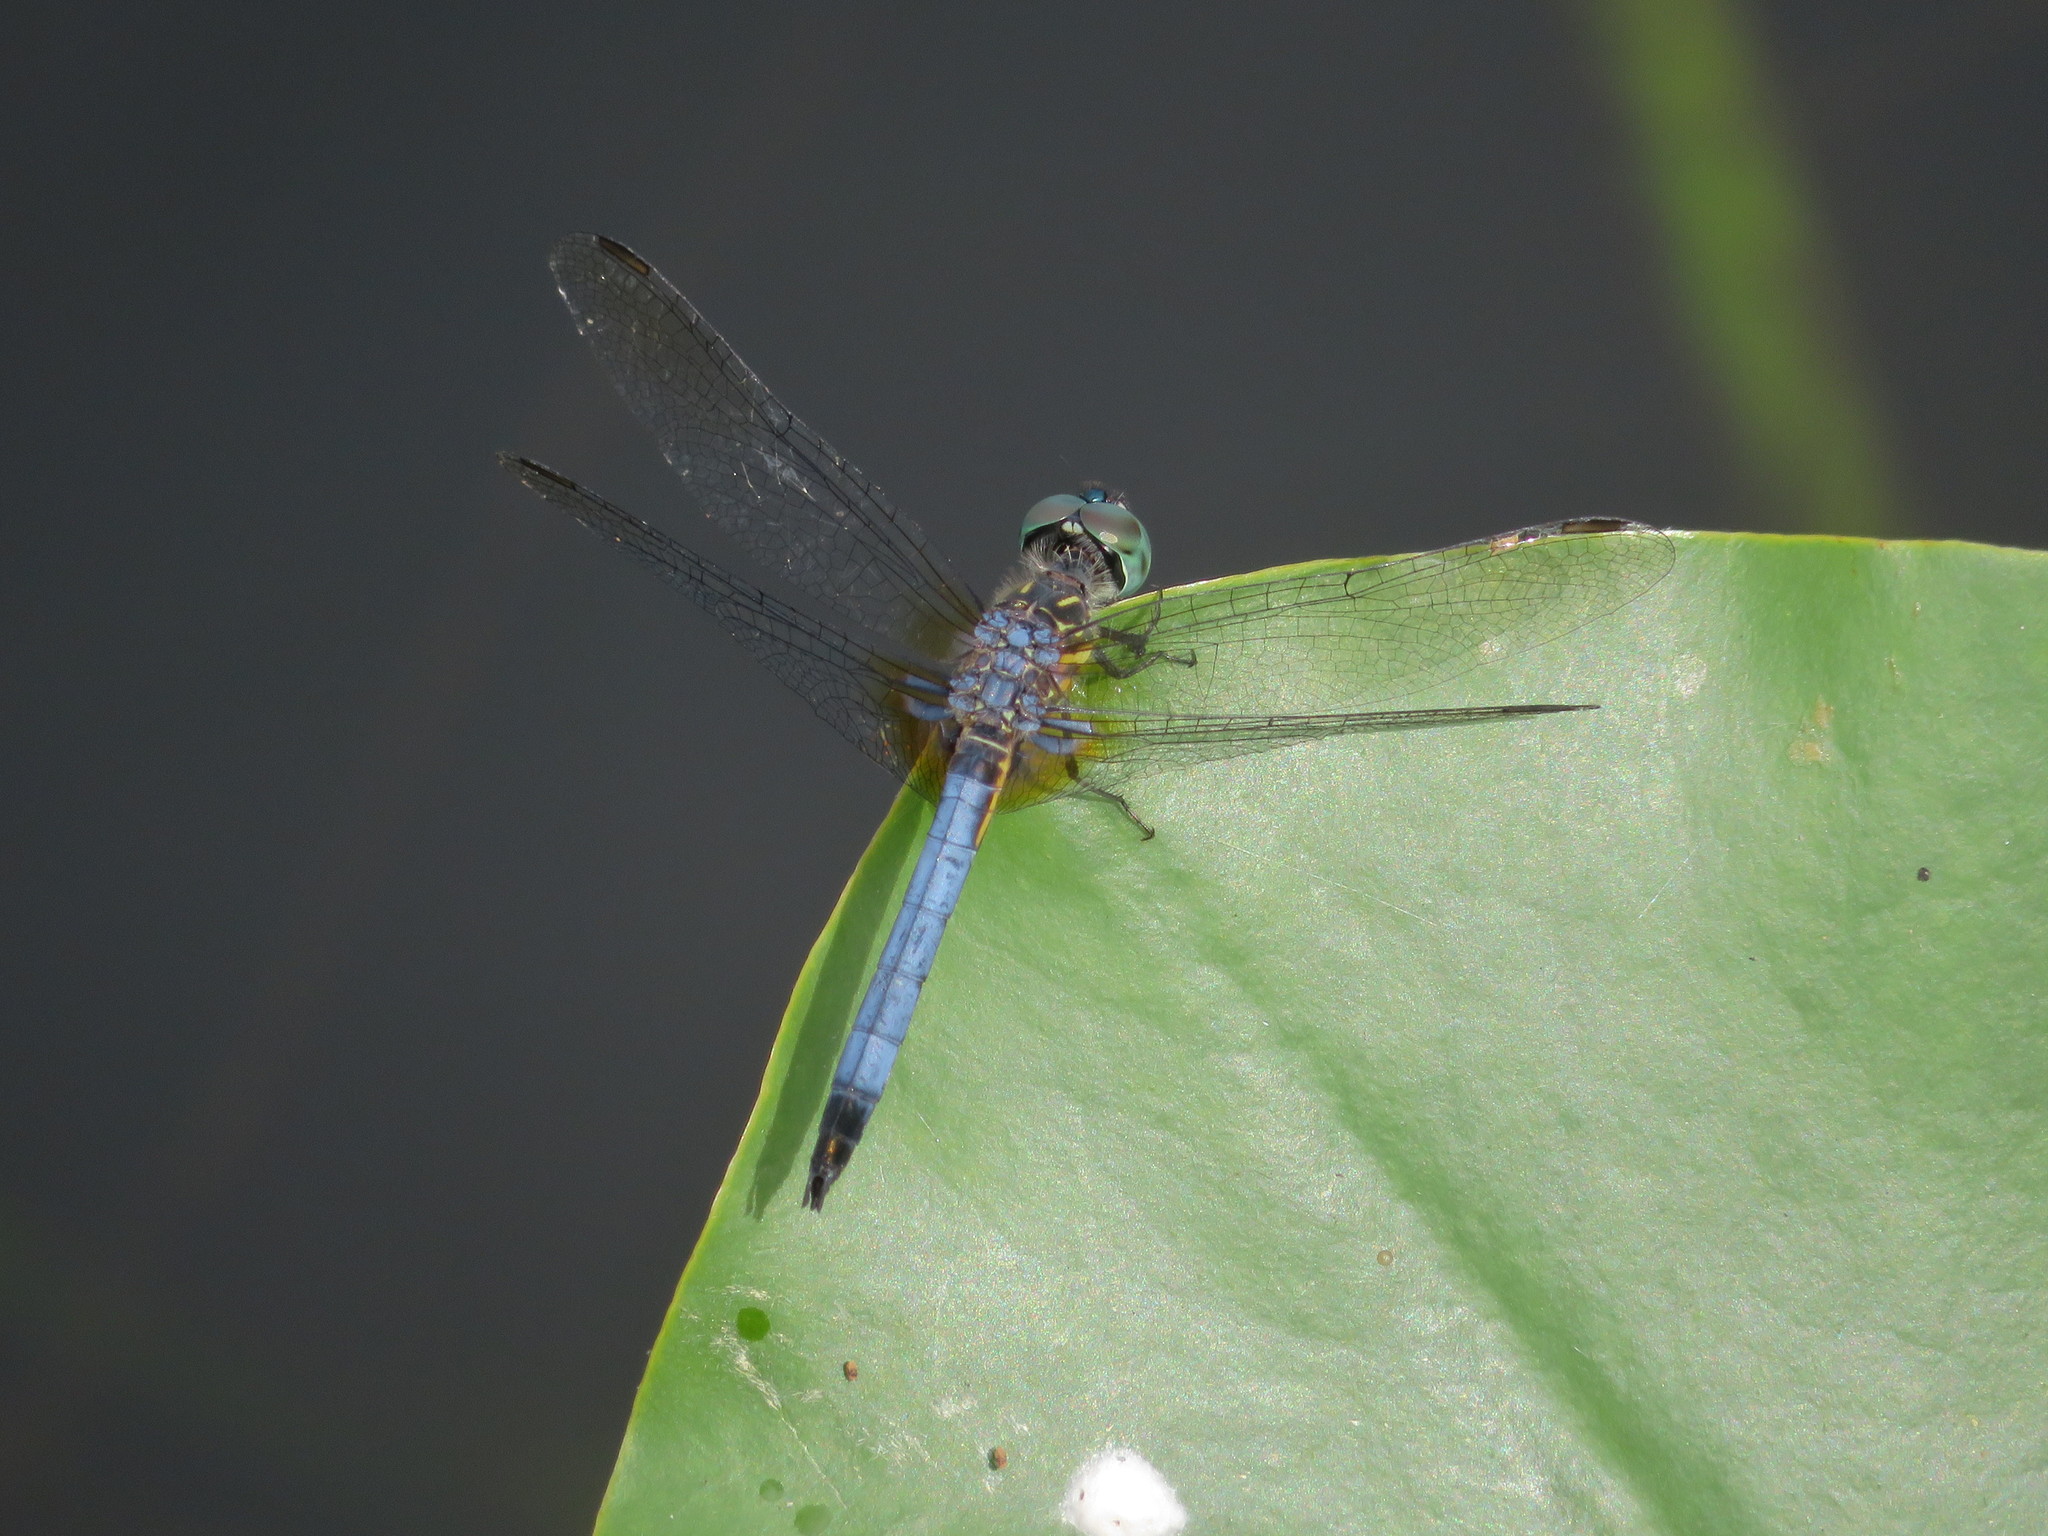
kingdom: Animalia
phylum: Arthropoda
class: Insecta
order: Odonata
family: Libellulidae
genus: Pachydiplax
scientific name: Pachydiplax longipennis
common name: Blue dasher
